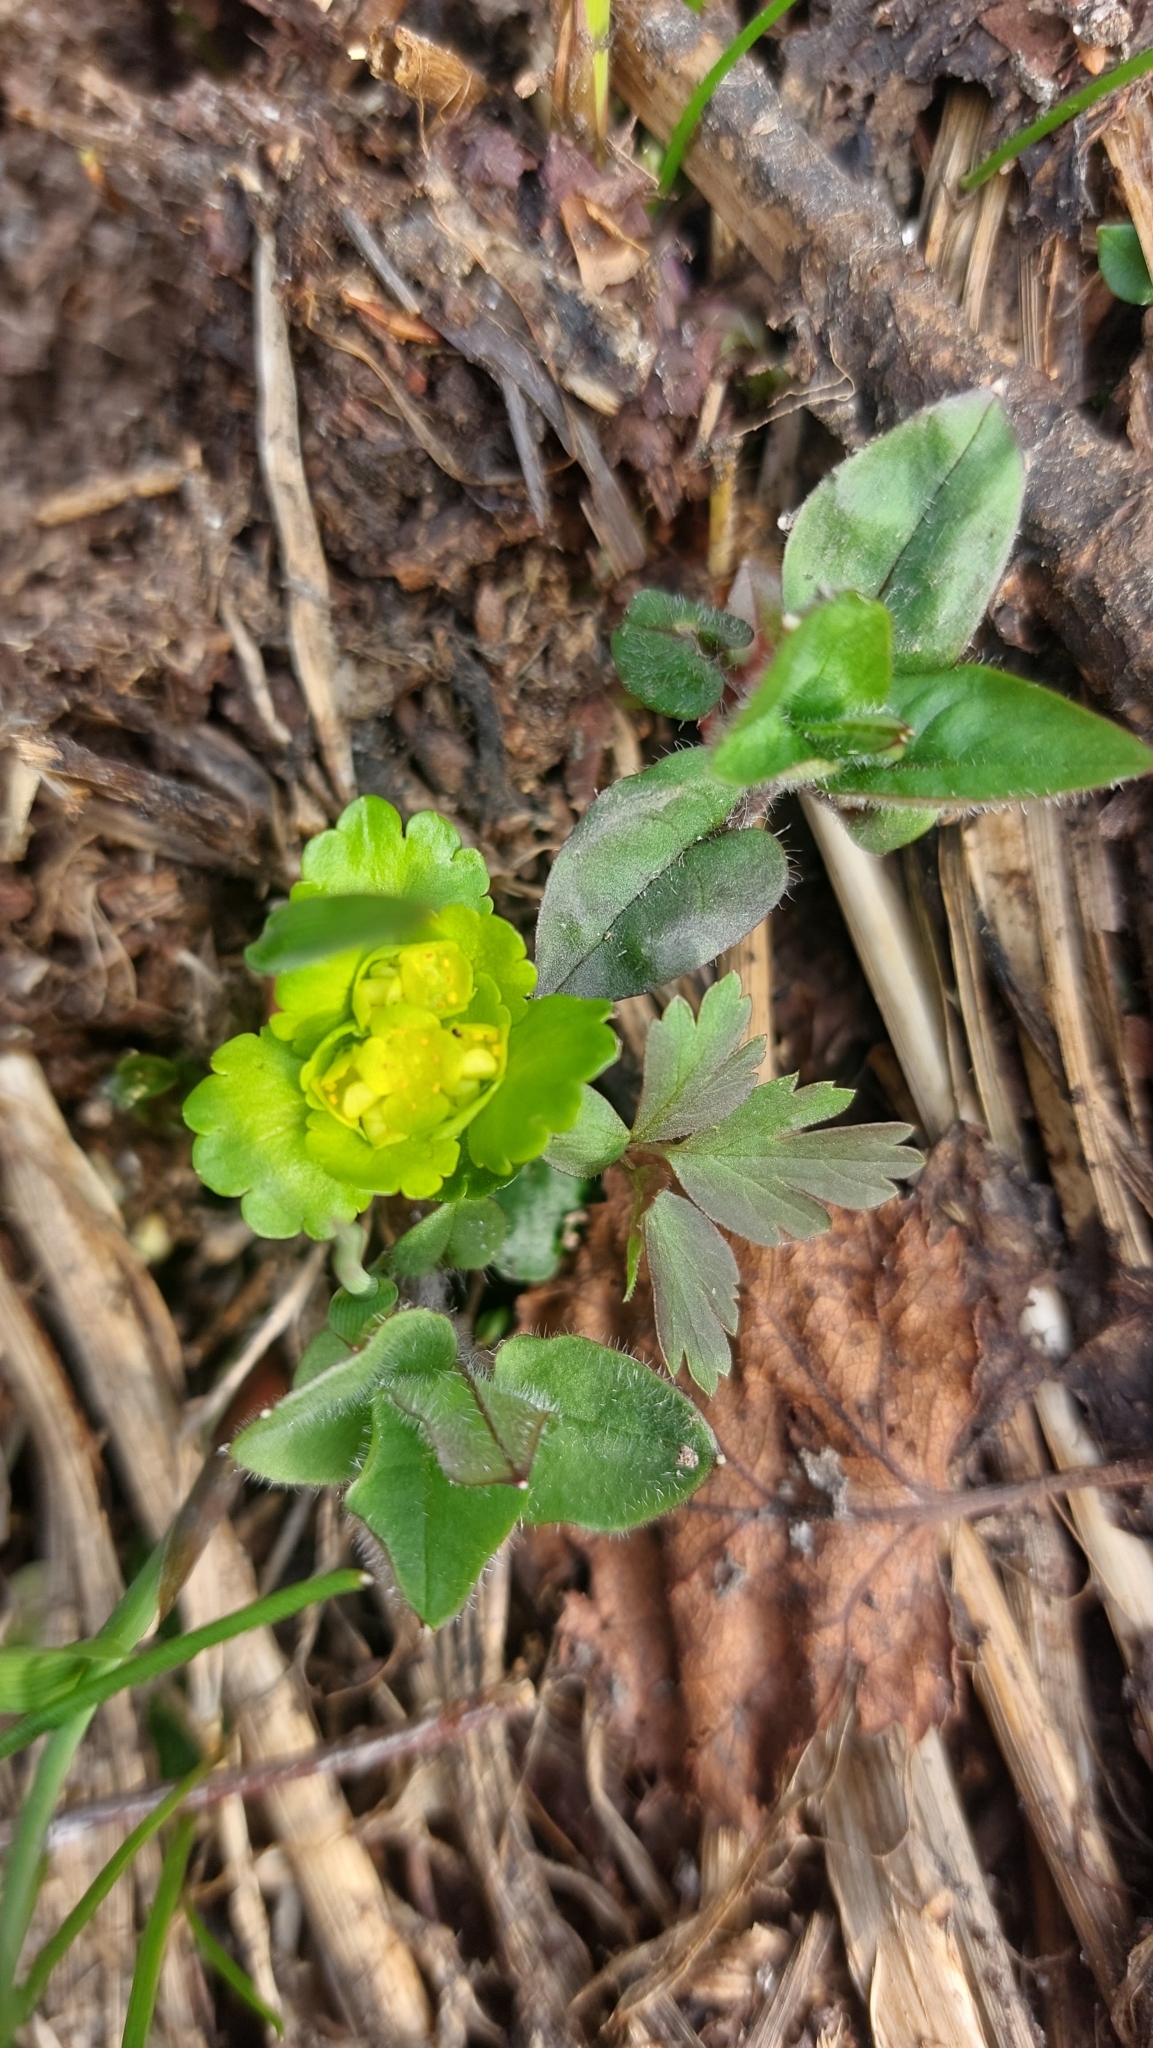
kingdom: Plantae
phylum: Tracheophyta
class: Magnoliopsida
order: Saxifragales
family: Saxifragaceae
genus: Chrysosplenium
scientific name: Chrysosplenium alternifolium
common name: Alternate-leaved golden-saxifrage
